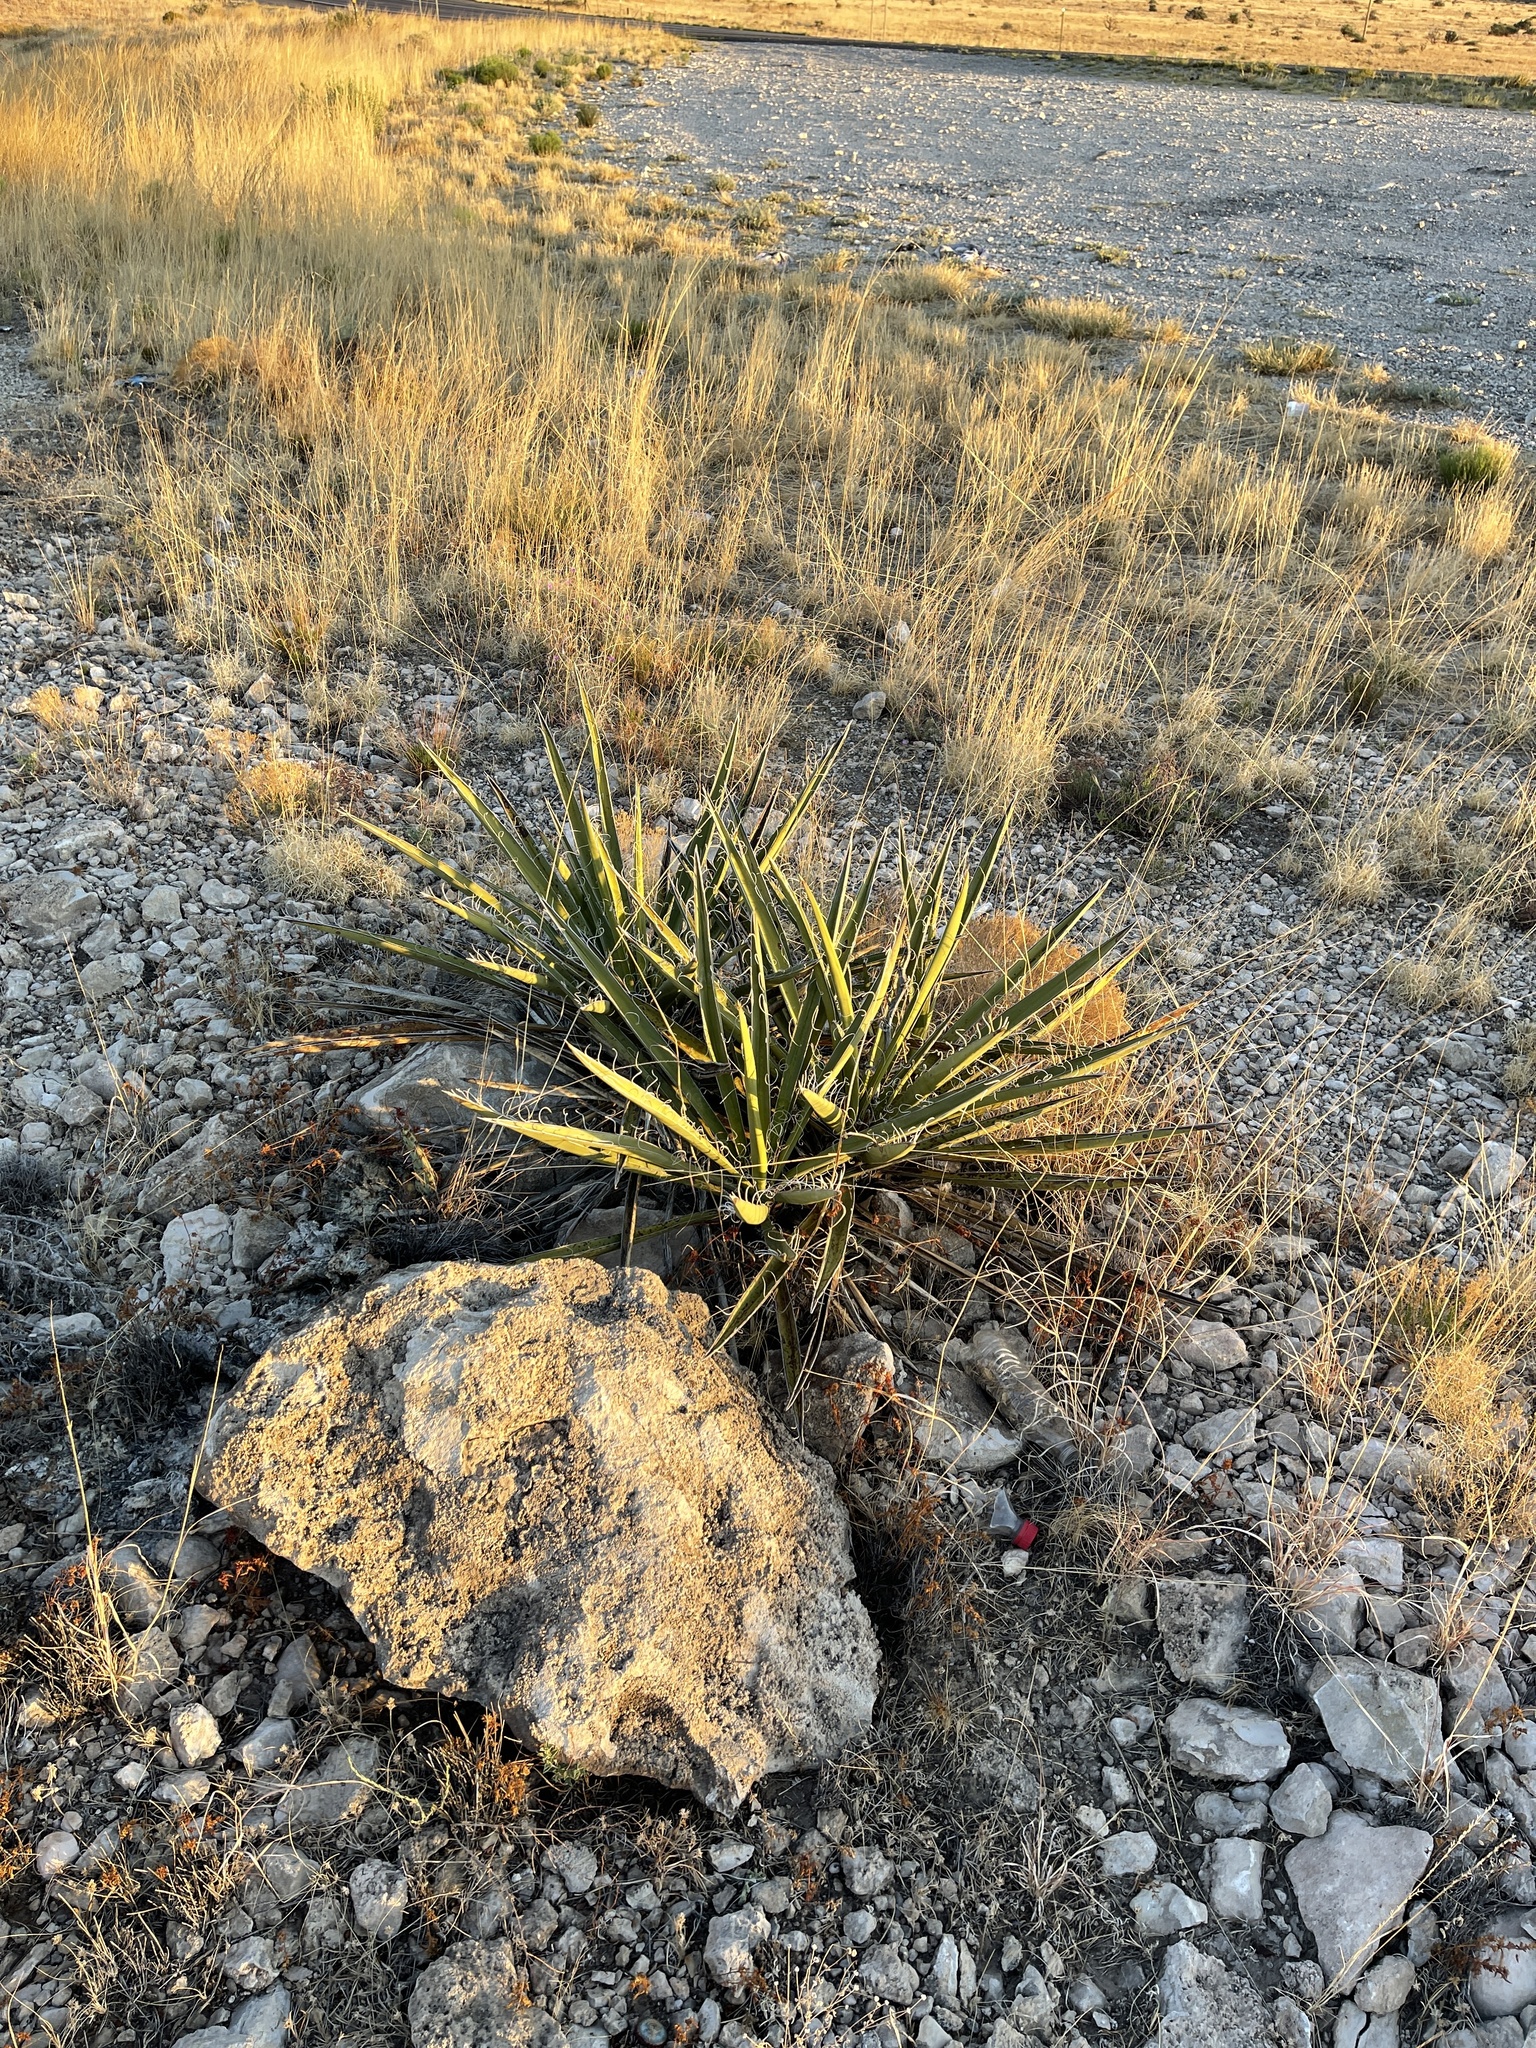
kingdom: Plantae
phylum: Tracheophyta
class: Liliopsida
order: Asparagales
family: Asparagaceae
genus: Yucca
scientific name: Yucca baccata
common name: Banana yucca
